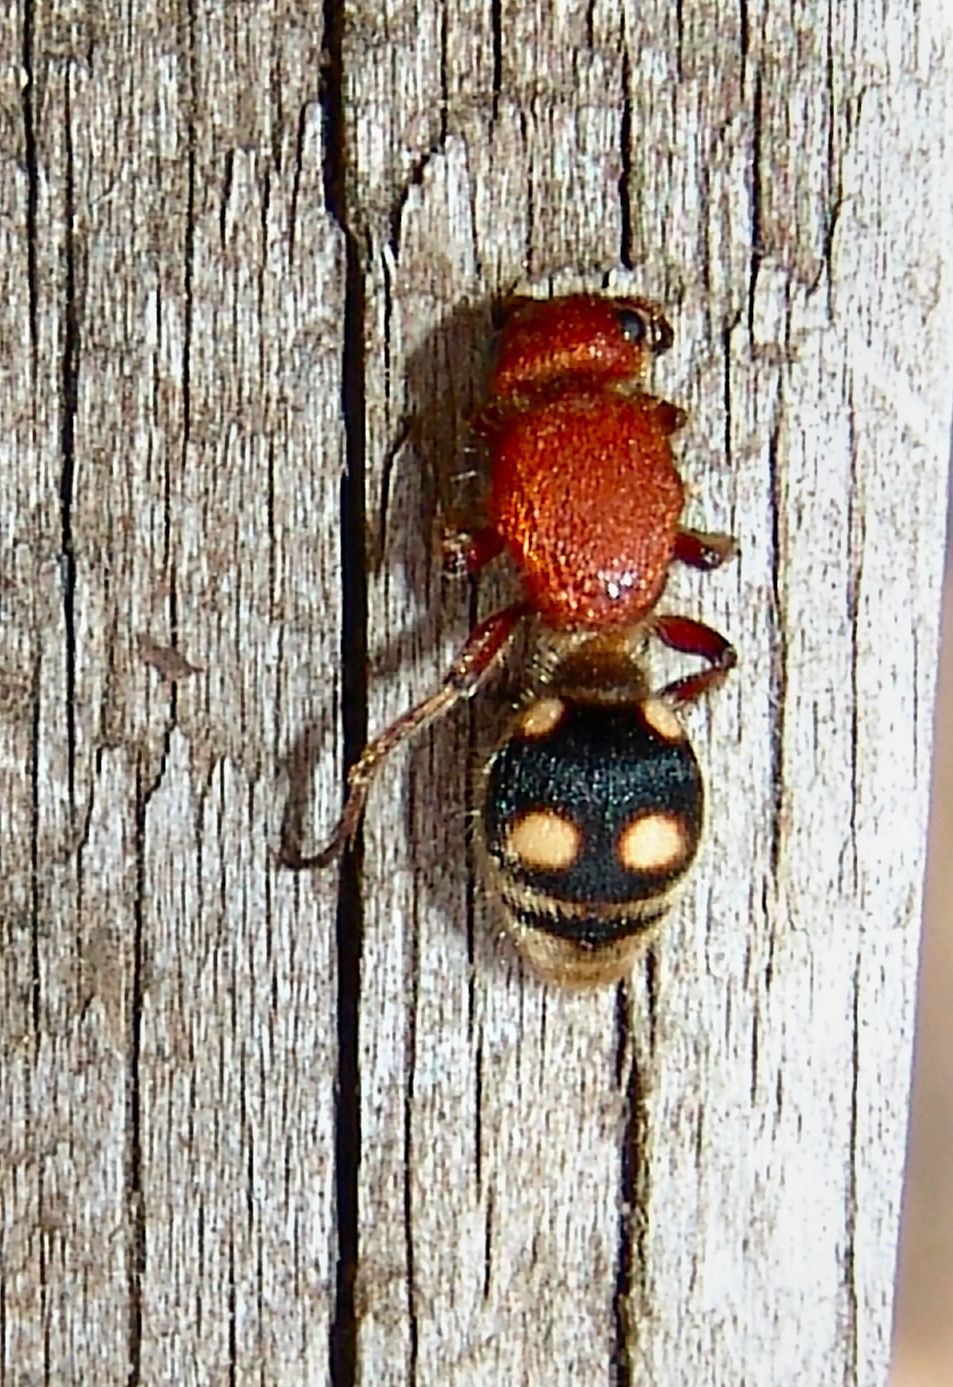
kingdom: Animalia
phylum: Arthropoda
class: Insecta
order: Hymenoptera
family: Mutillidae
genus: Dasymutilla
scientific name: Dasymutilla
